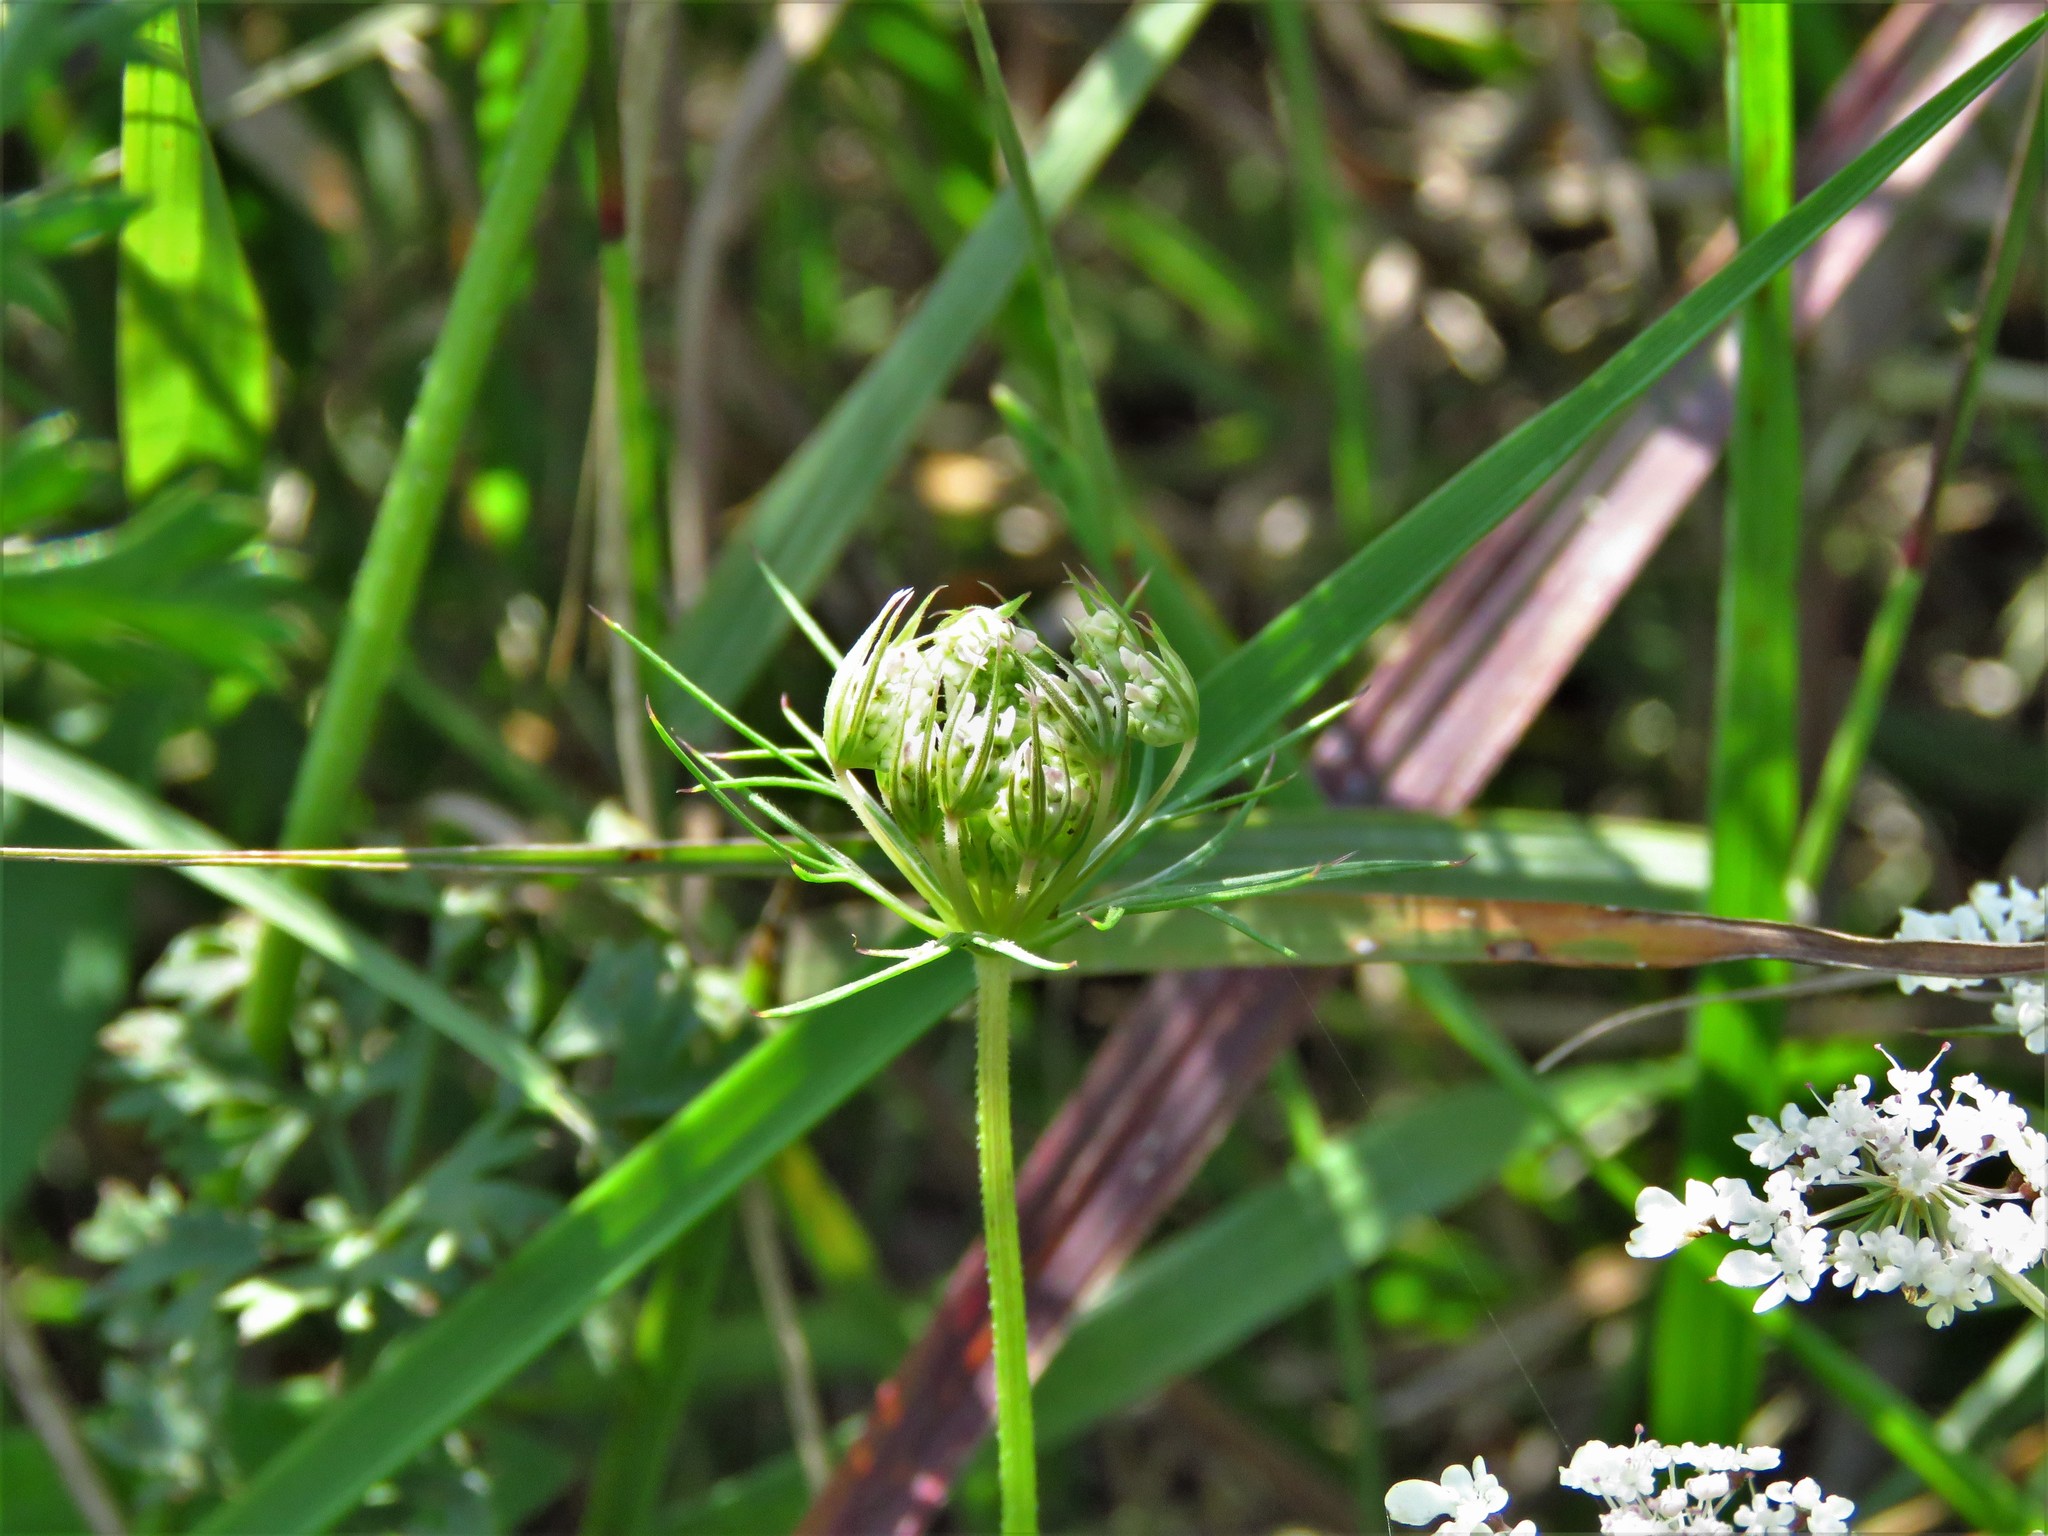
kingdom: Plantae
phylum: Tracheophyta
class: Magnoliopsida
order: Apiales
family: Apiaceae
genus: Daucus
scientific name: Daucus carota
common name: Wild carrot
